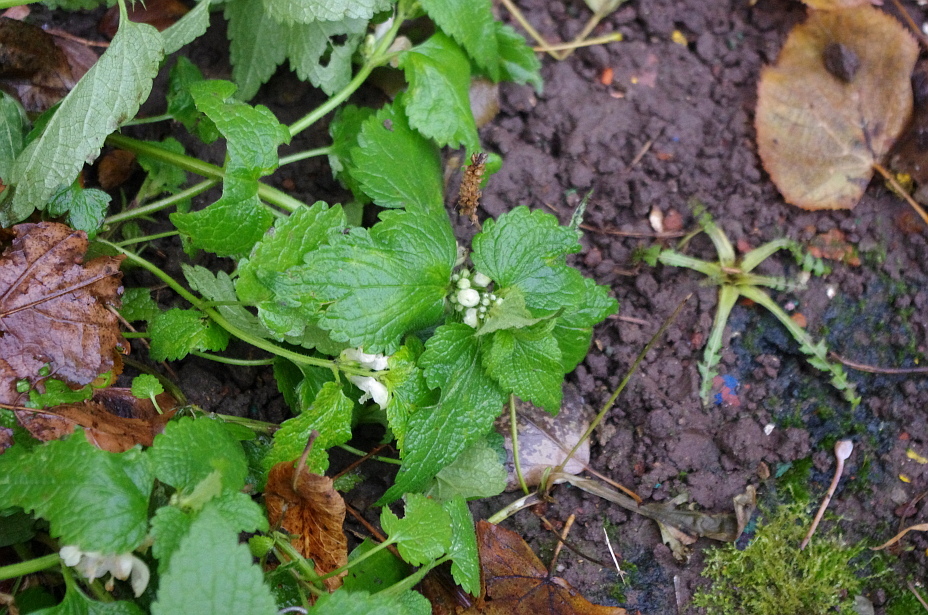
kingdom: Plantae
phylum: Tracheophyta
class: Magnoliopsida
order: Lamiales
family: Lamiaceae
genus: Lamium
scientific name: Lamium album
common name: White dead-nettle
